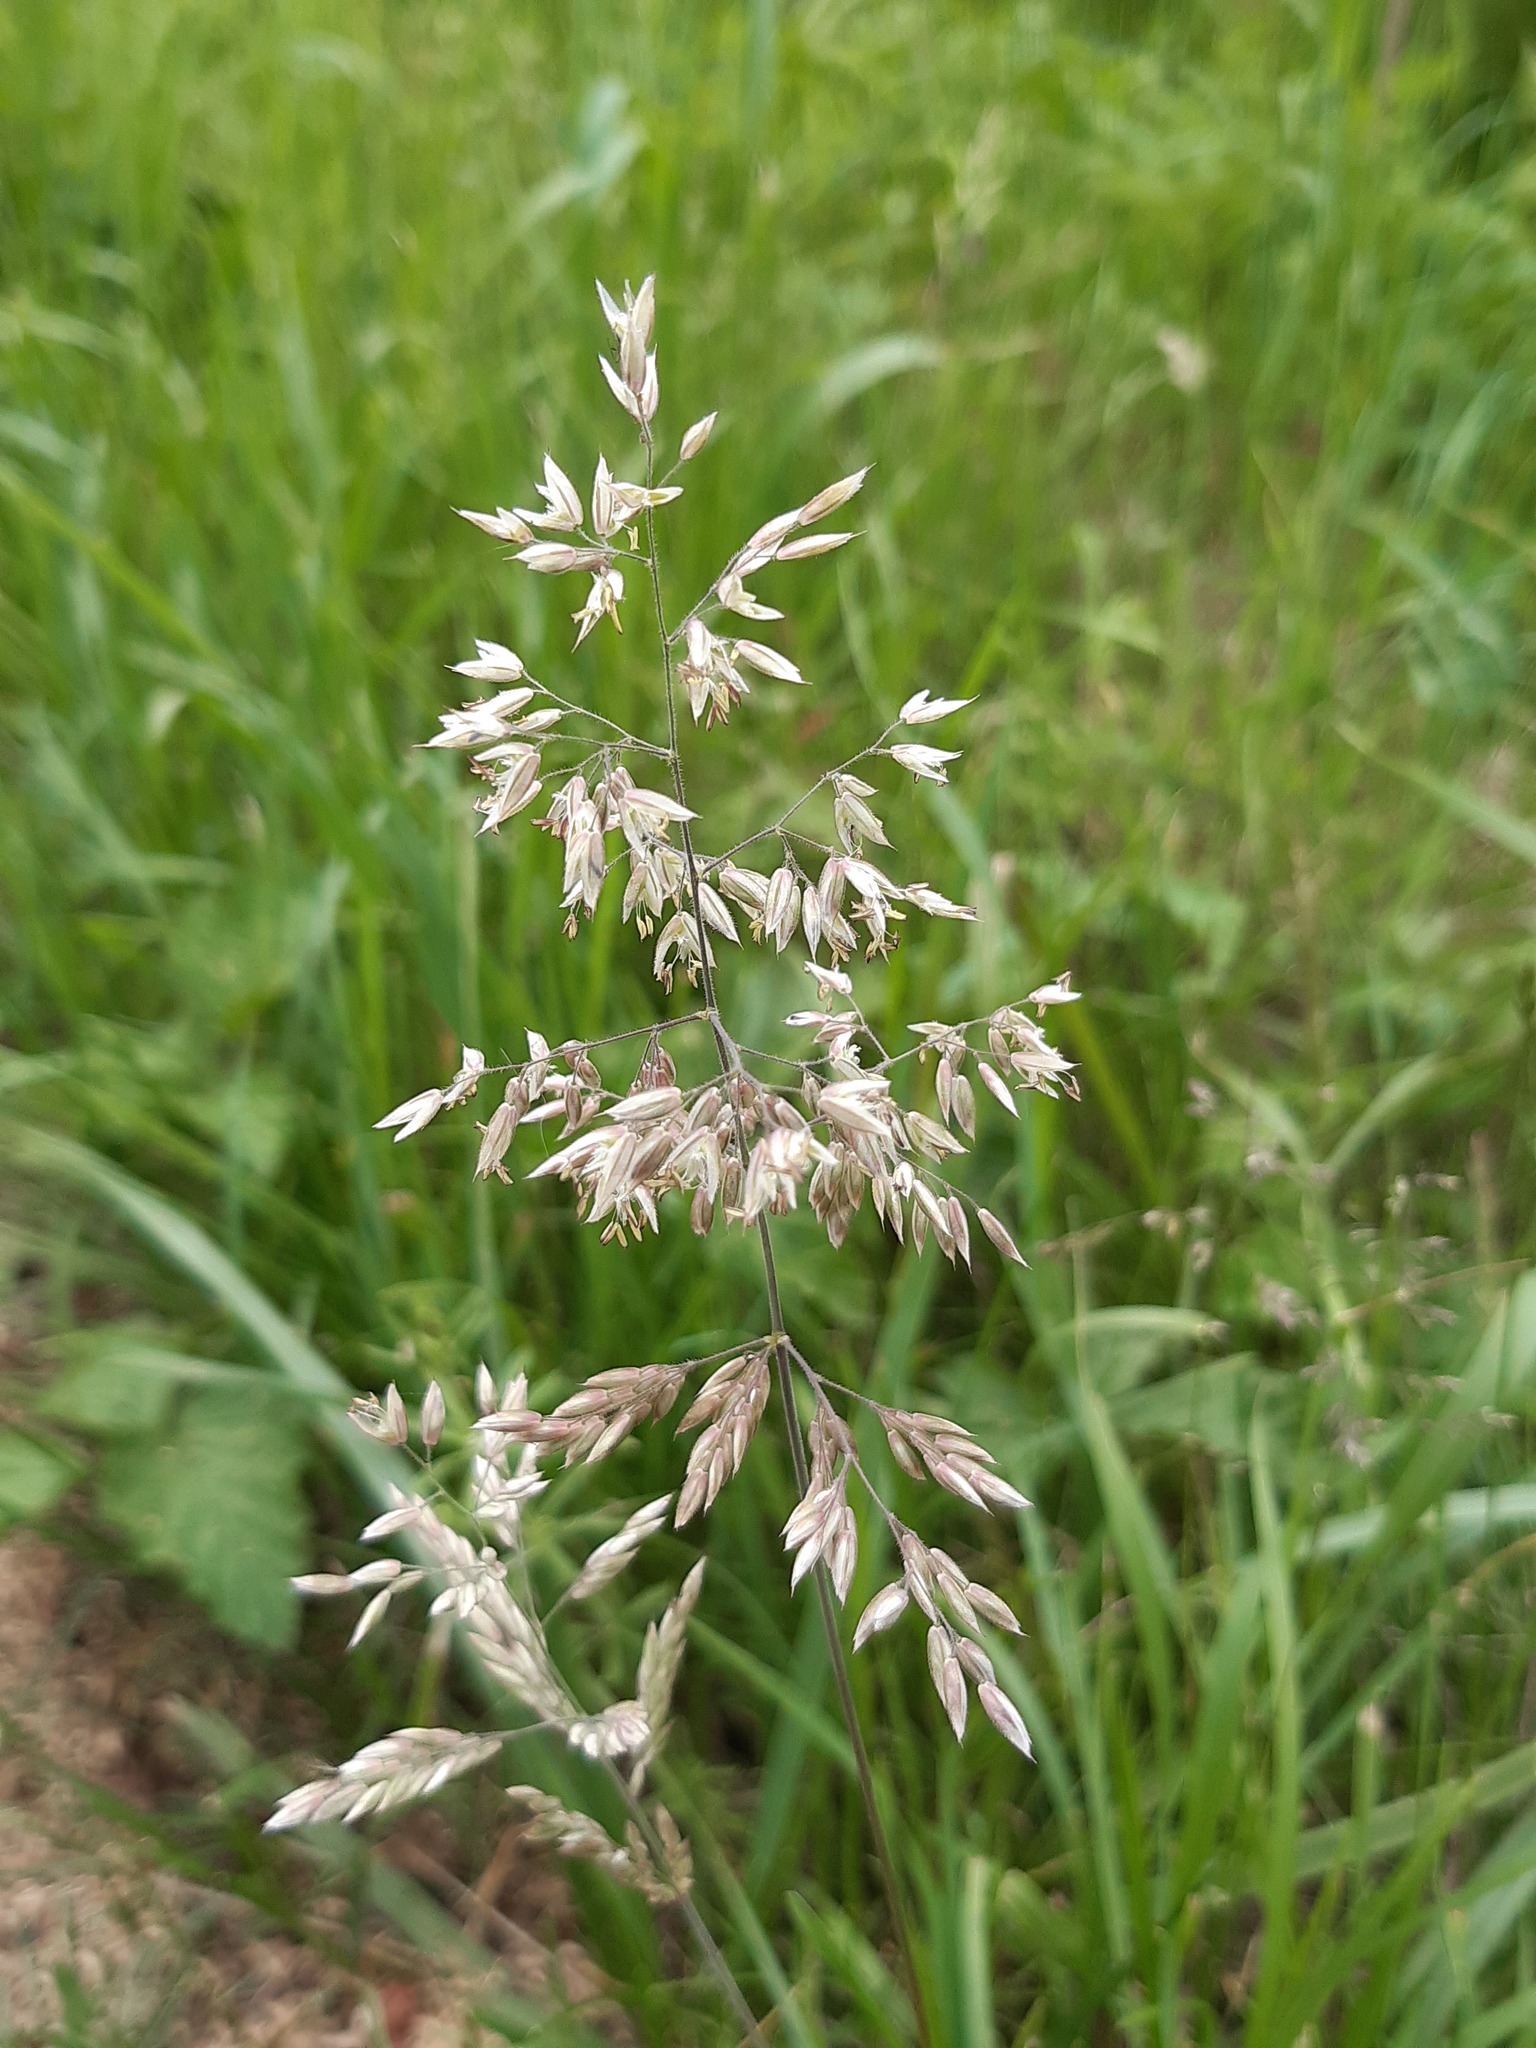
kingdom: Plantae
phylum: Tracheophyta
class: Liliopsida
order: Poales
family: Poaceae
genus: Holcus
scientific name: Holcus lanatus
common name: Yorkshire-fog
